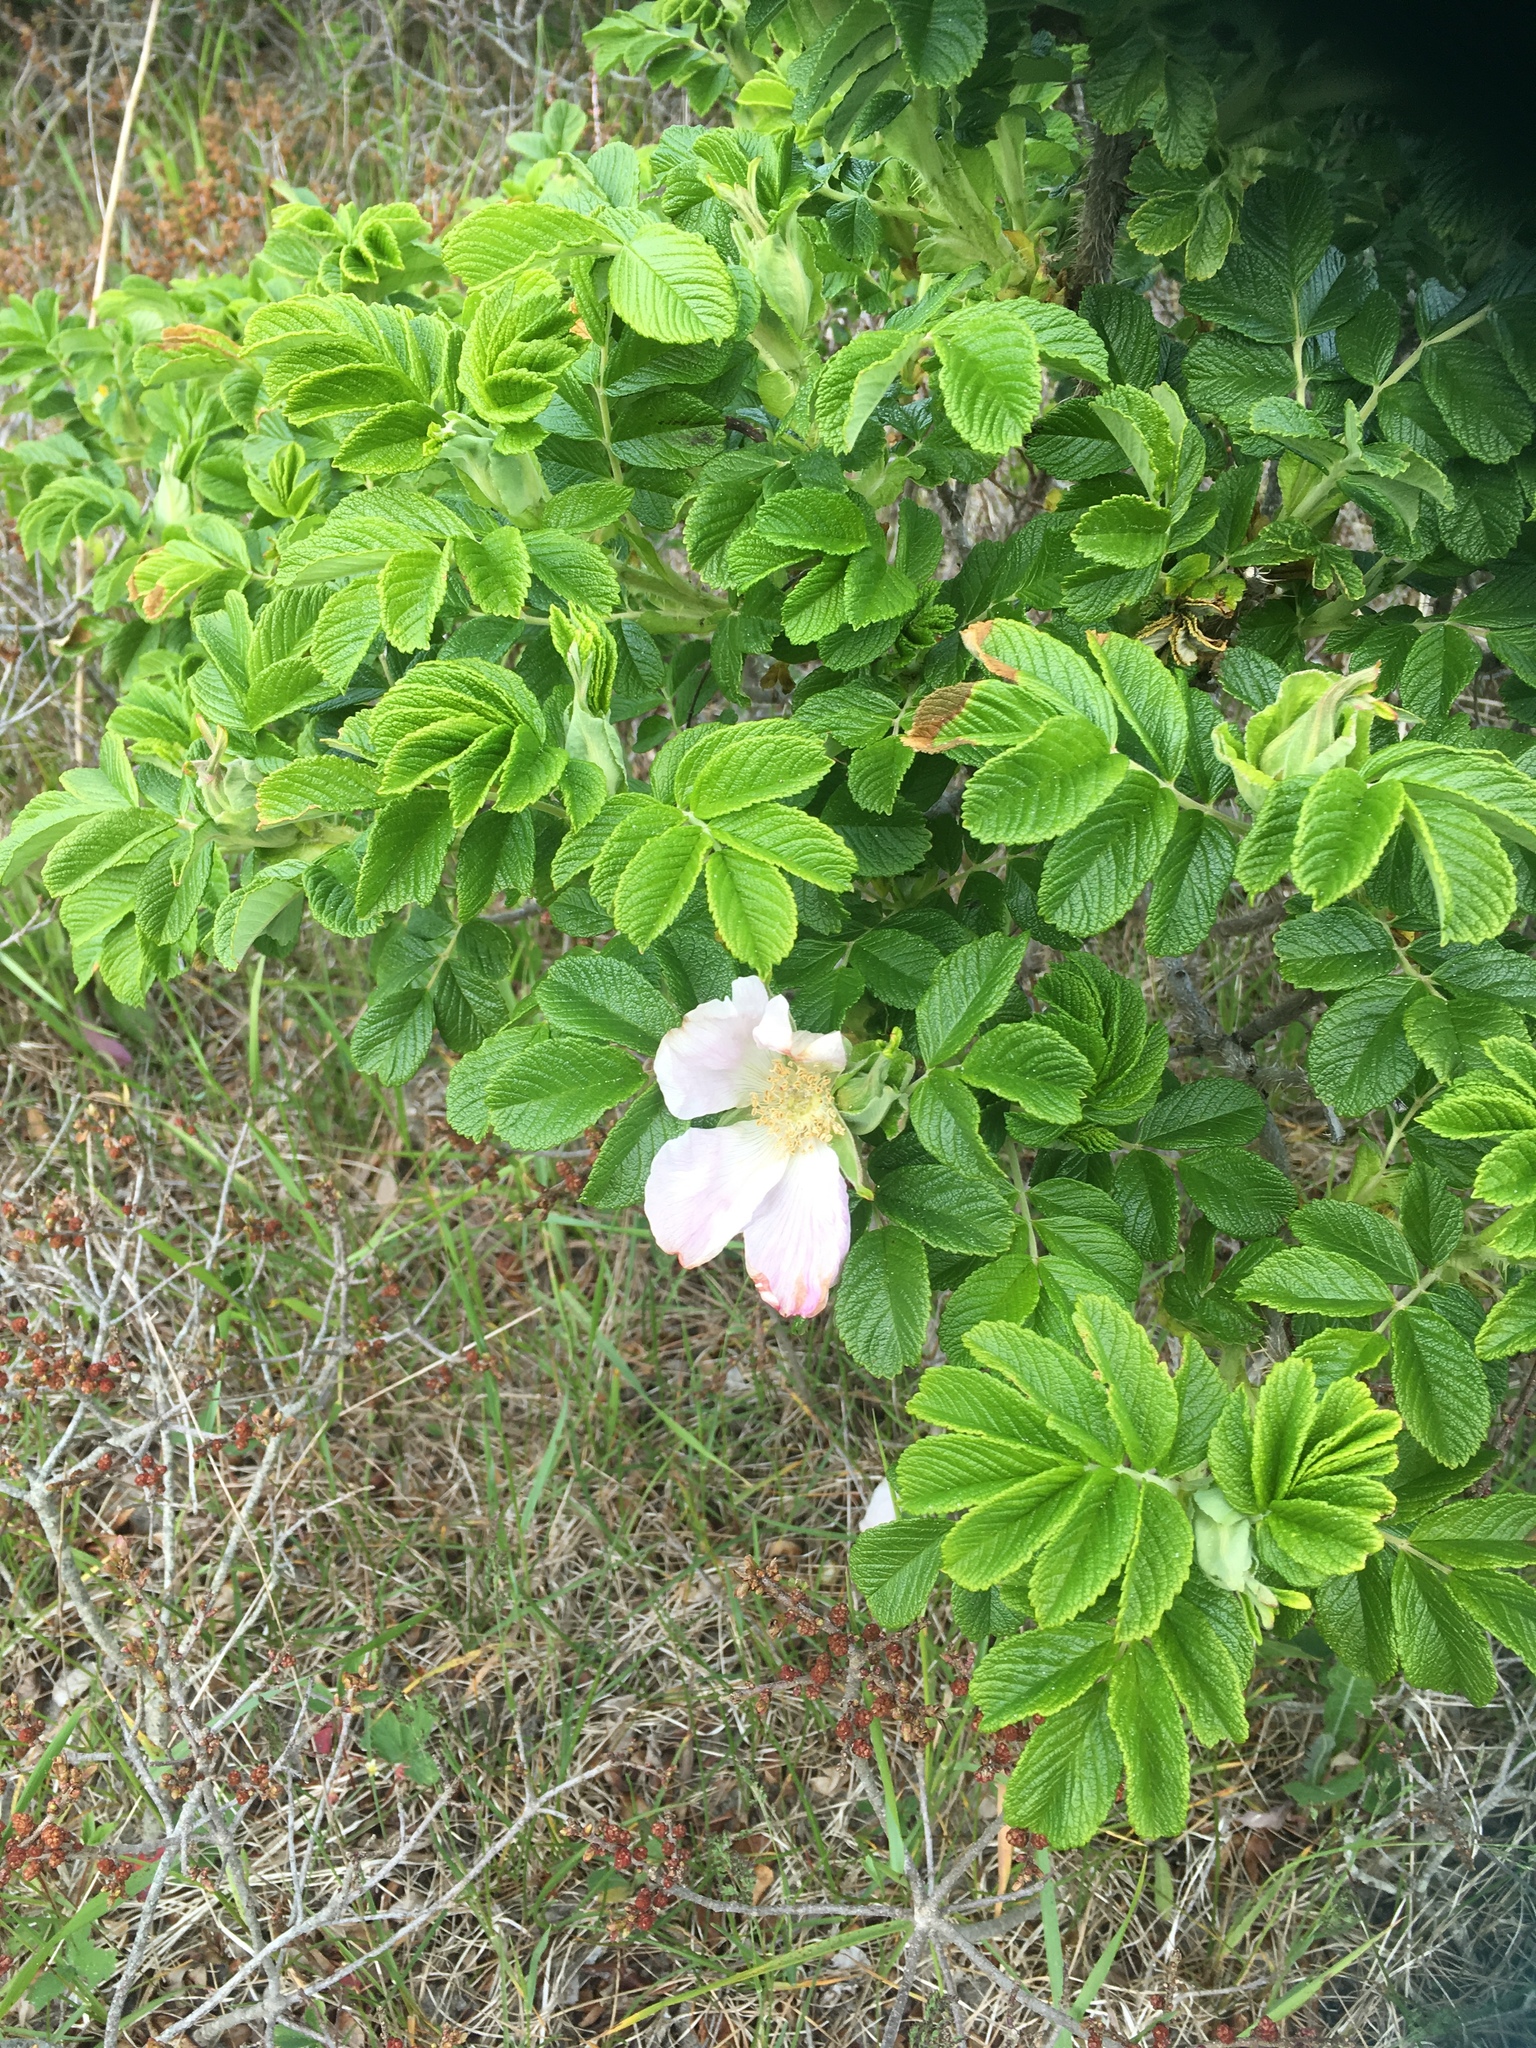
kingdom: Plantae
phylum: Tracheophyta
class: Magnoliopsida
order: Rosales
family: Rosaceae
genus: Rosa
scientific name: Rosa rugosa
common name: Japanese rose
